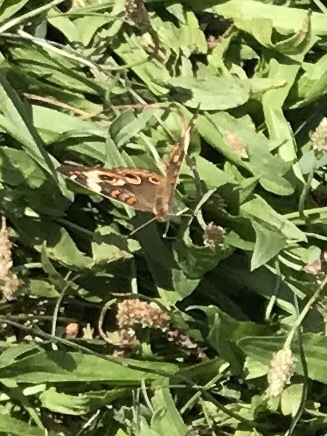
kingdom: Animalia
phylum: Arthropoda
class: Insecta
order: Lepidoptera
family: Nymphalidae
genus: Junonia
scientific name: Junonia coenia
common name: Common buckeye
